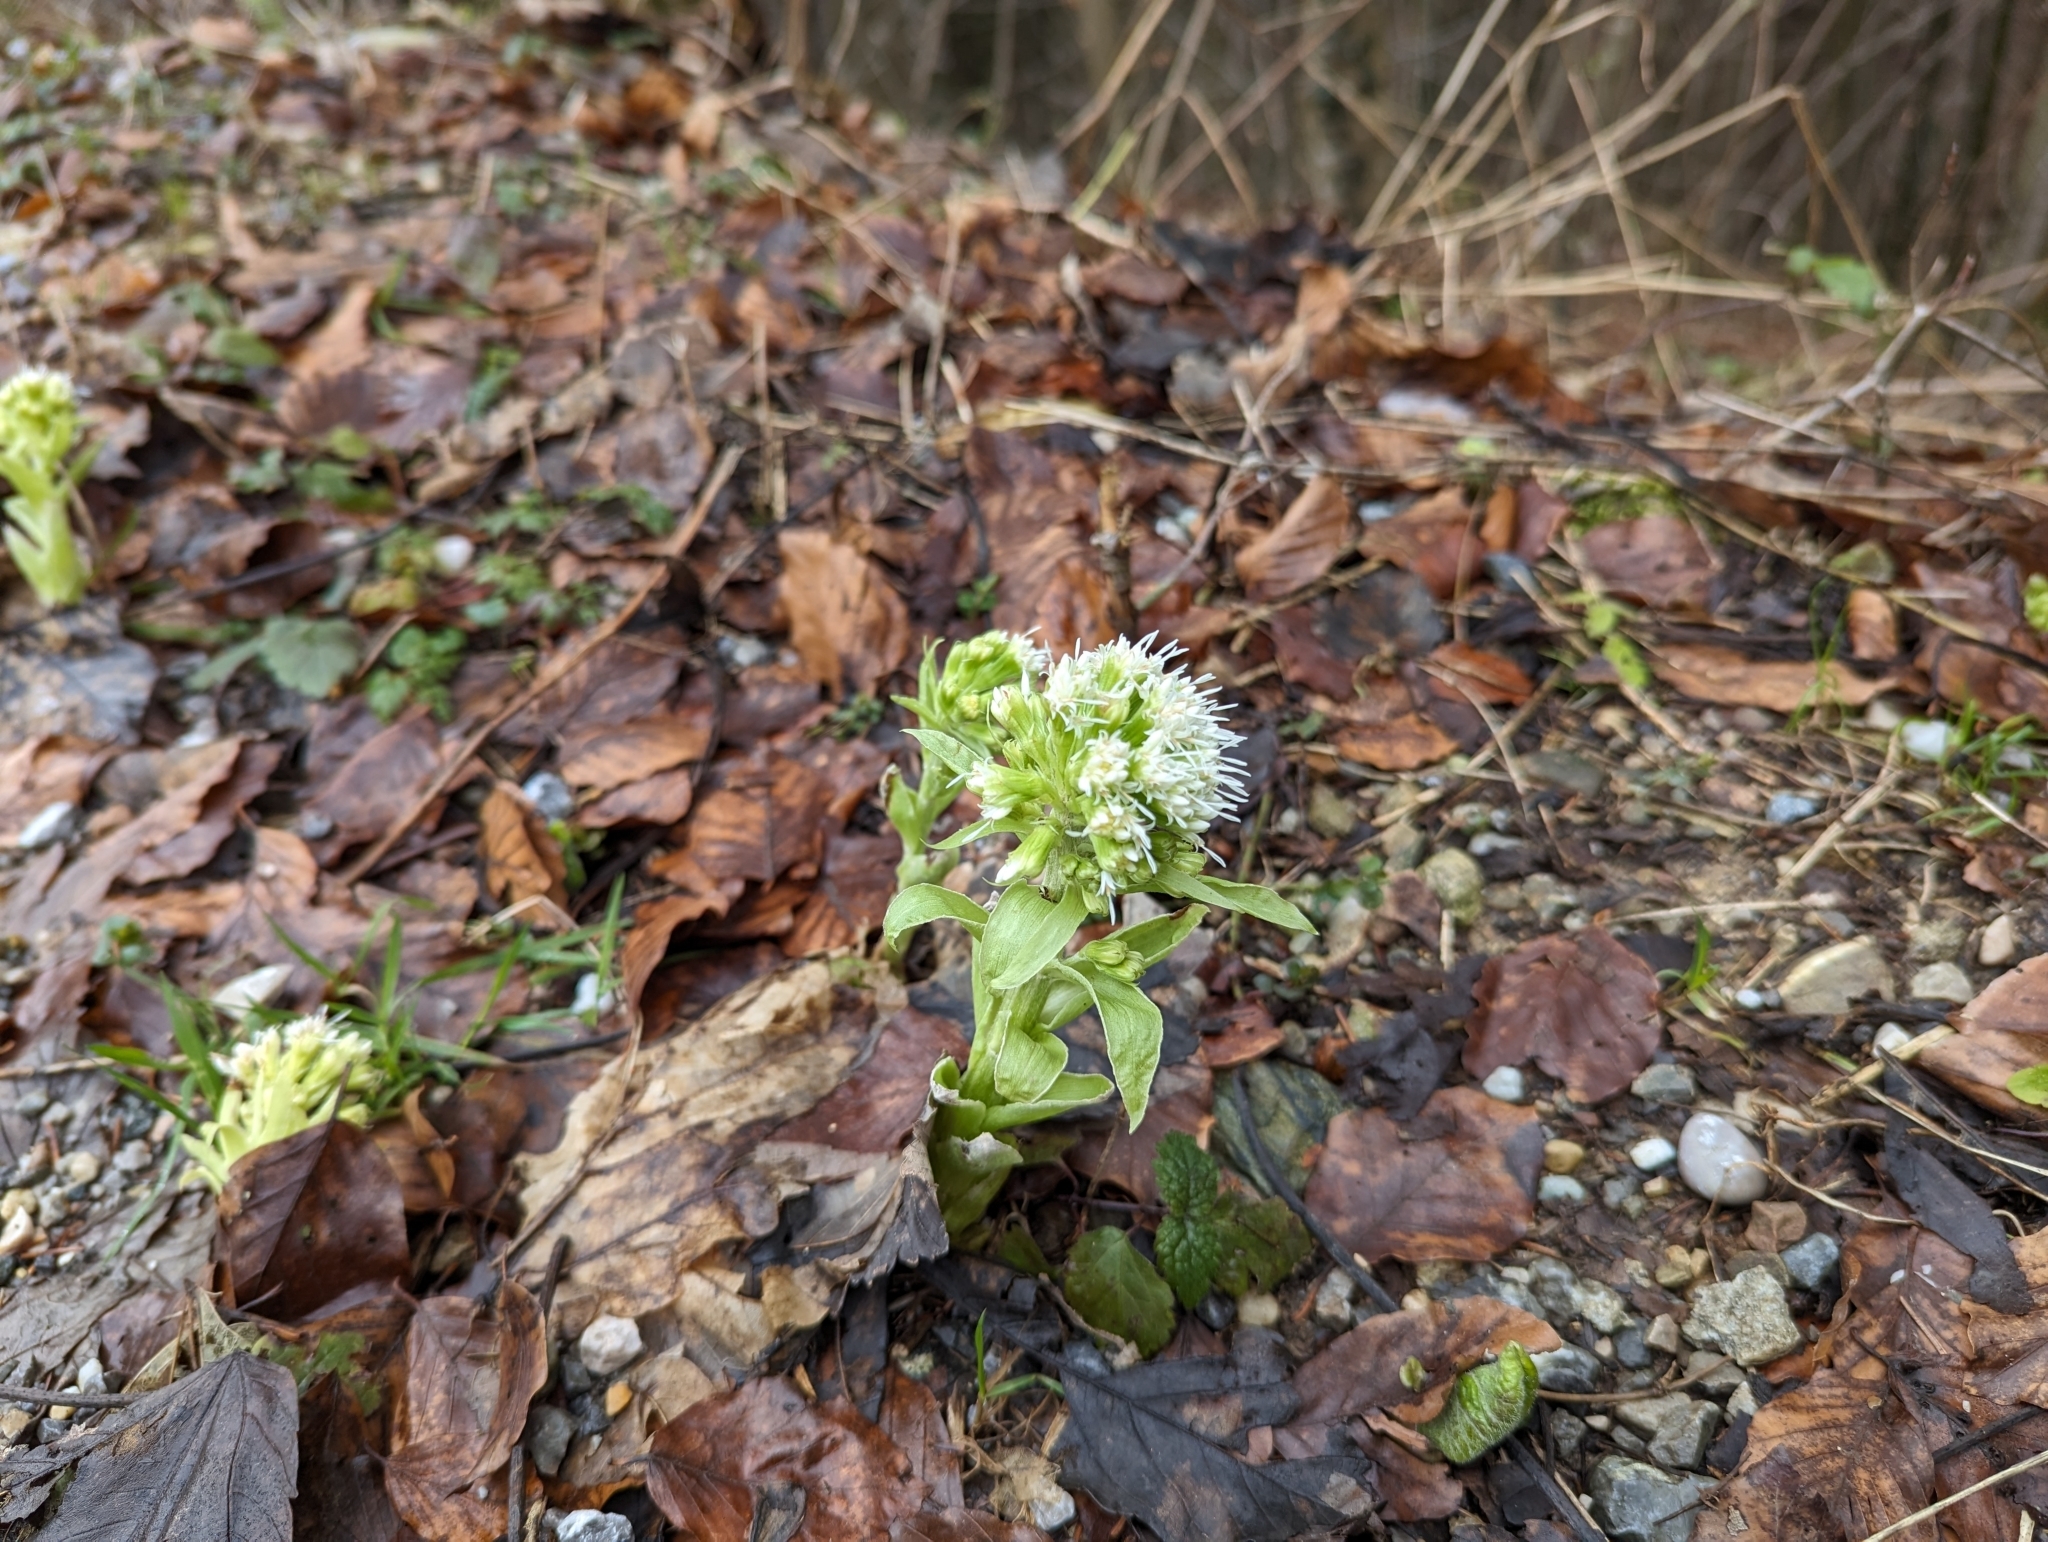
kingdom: Plantae
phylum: Tracheophyta
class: Magnoliopsida
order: Asterales
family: Asteraceae
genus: Petasites
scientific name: Petasites albus
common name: White butterbur
